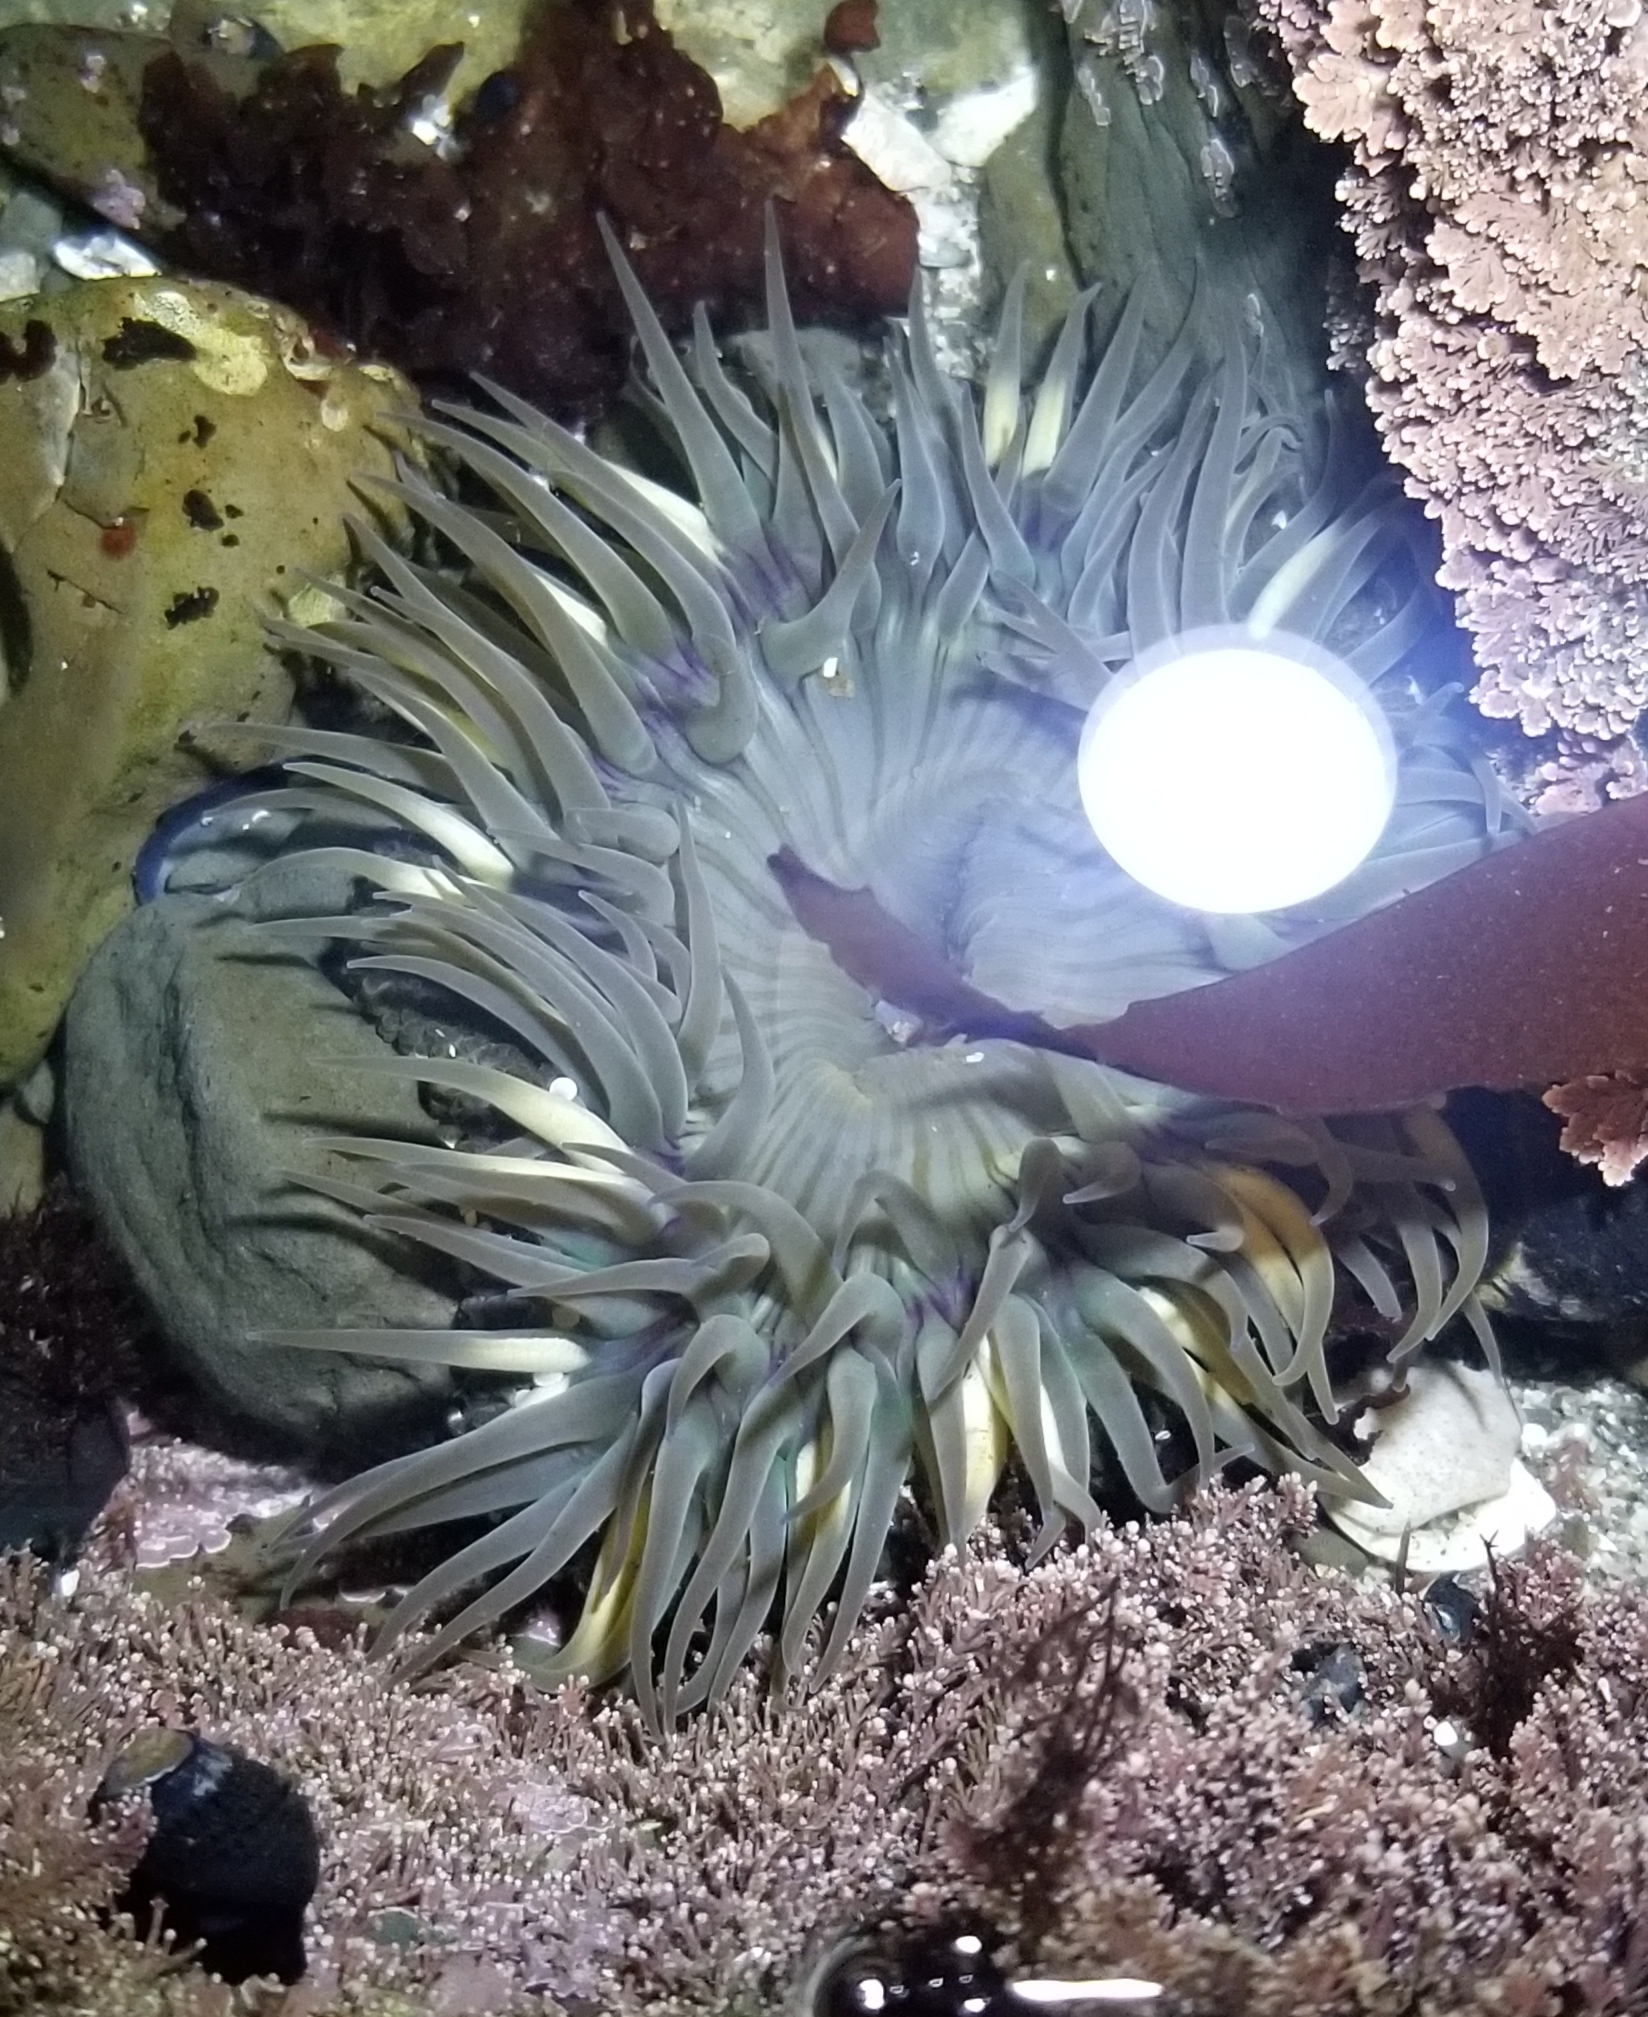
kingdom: Animalia
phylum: Cnidaria
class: Anthozoa
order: Actiniaria
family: Actiniidae
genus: Anthopleura
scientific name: Anthopleura sola
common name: Sun anemone
